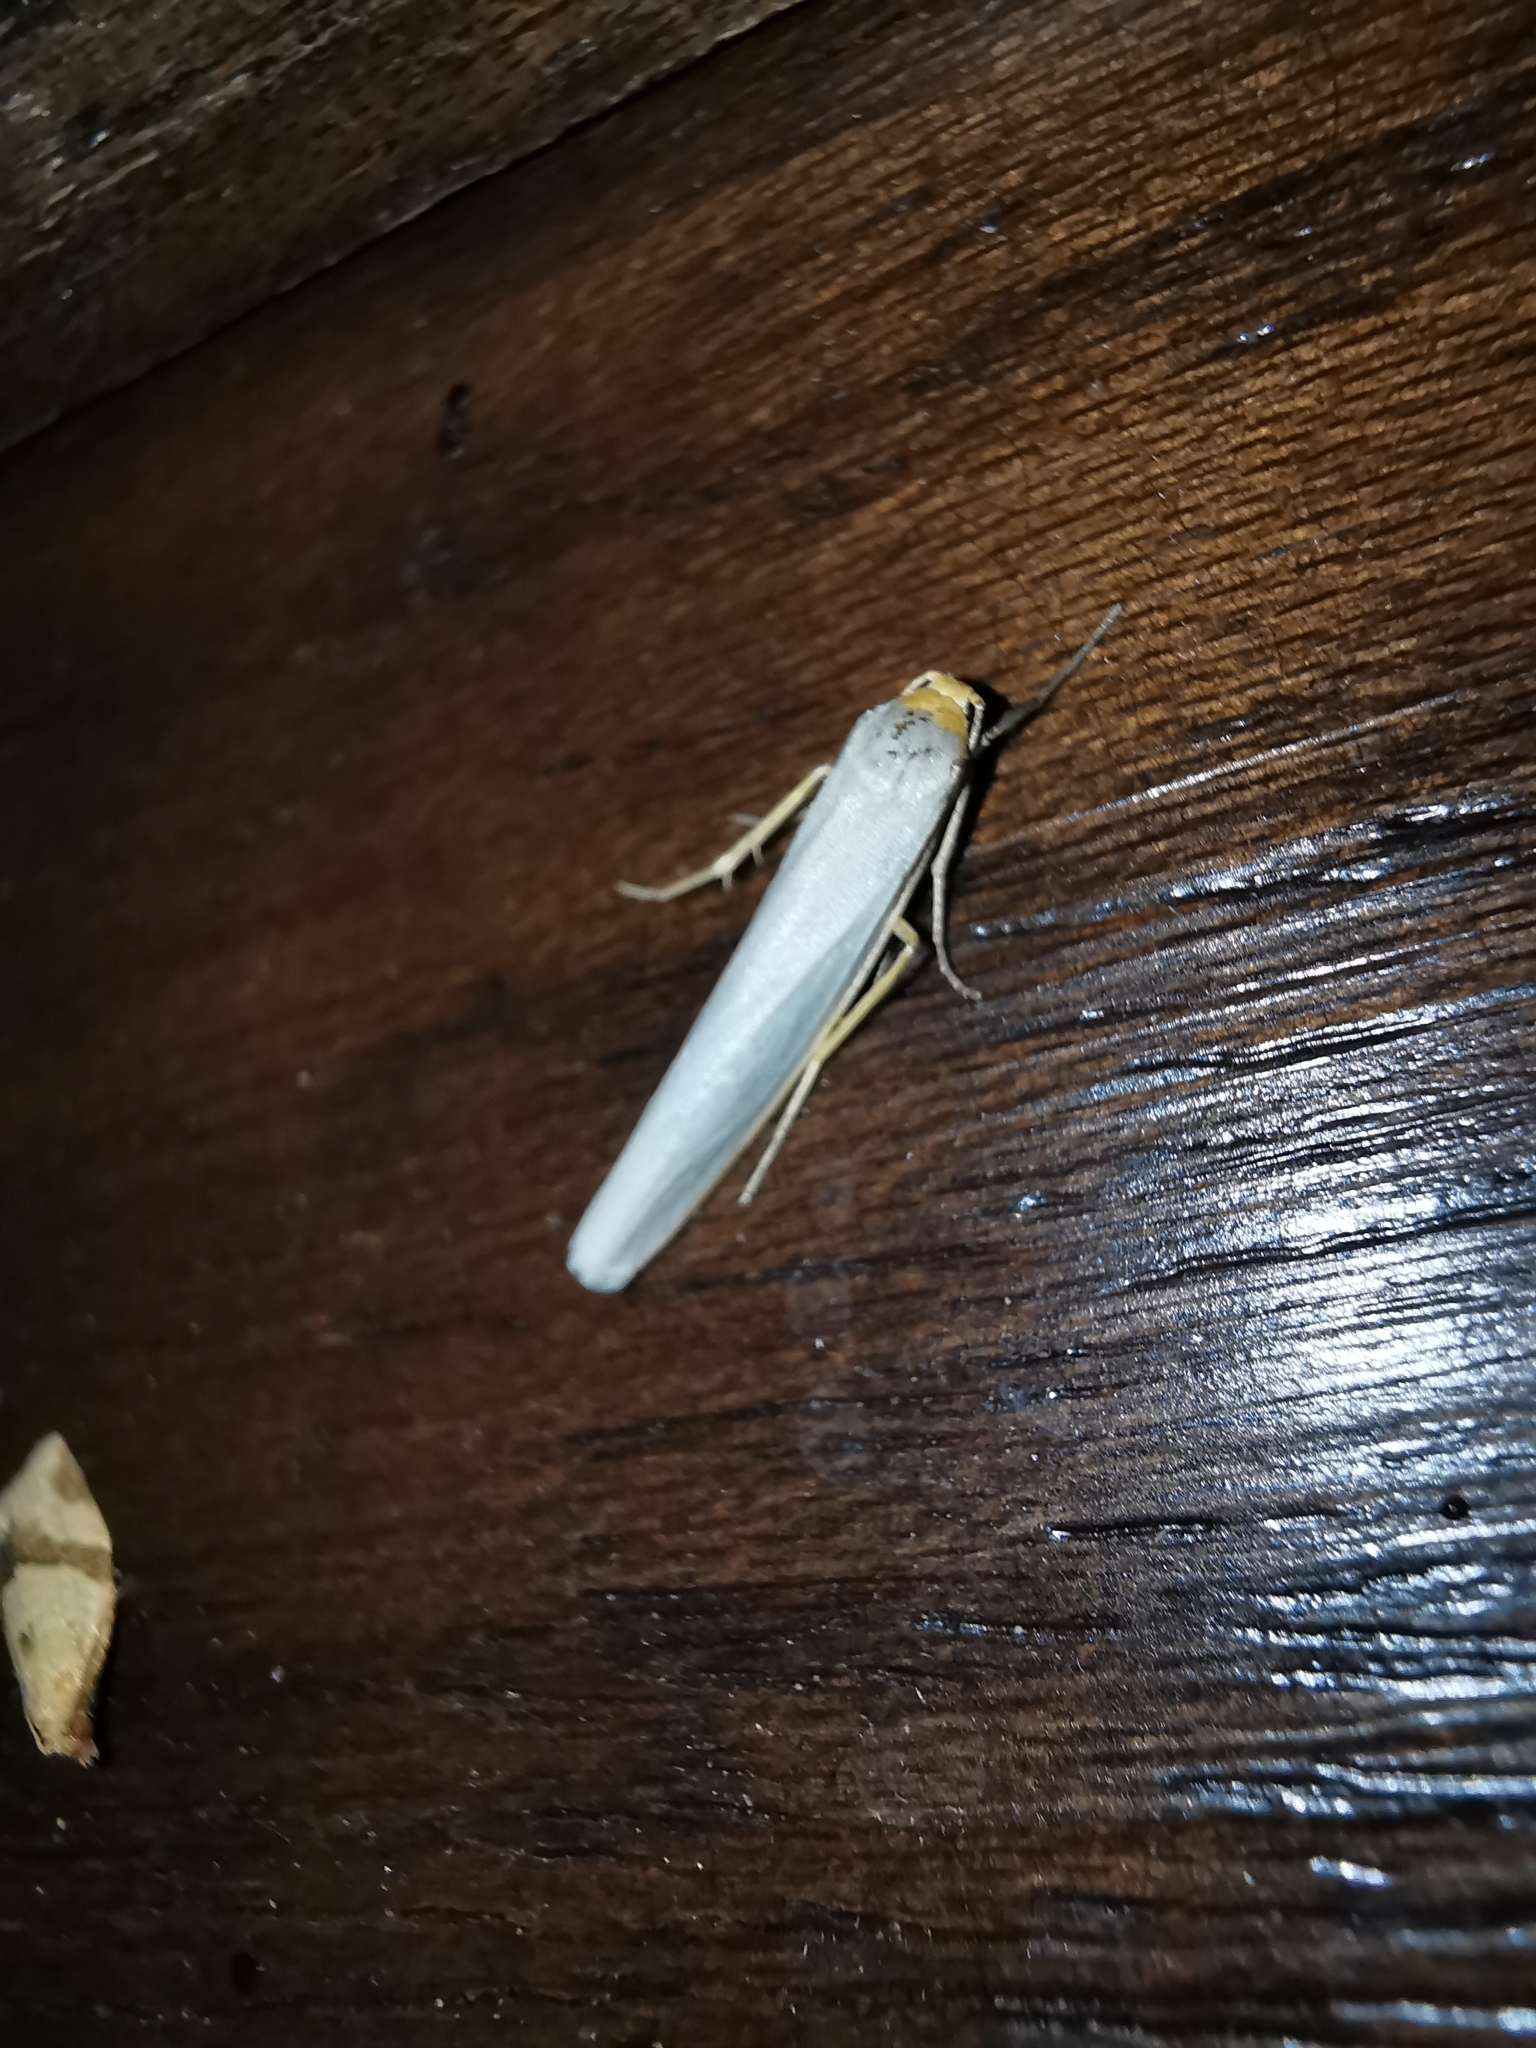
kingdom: Animalia
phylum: Arthropoda
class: Insecta
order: Lepidoptera
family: Erebidae
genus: Eilema
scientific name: Eilema caniola
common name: Hoary footman
